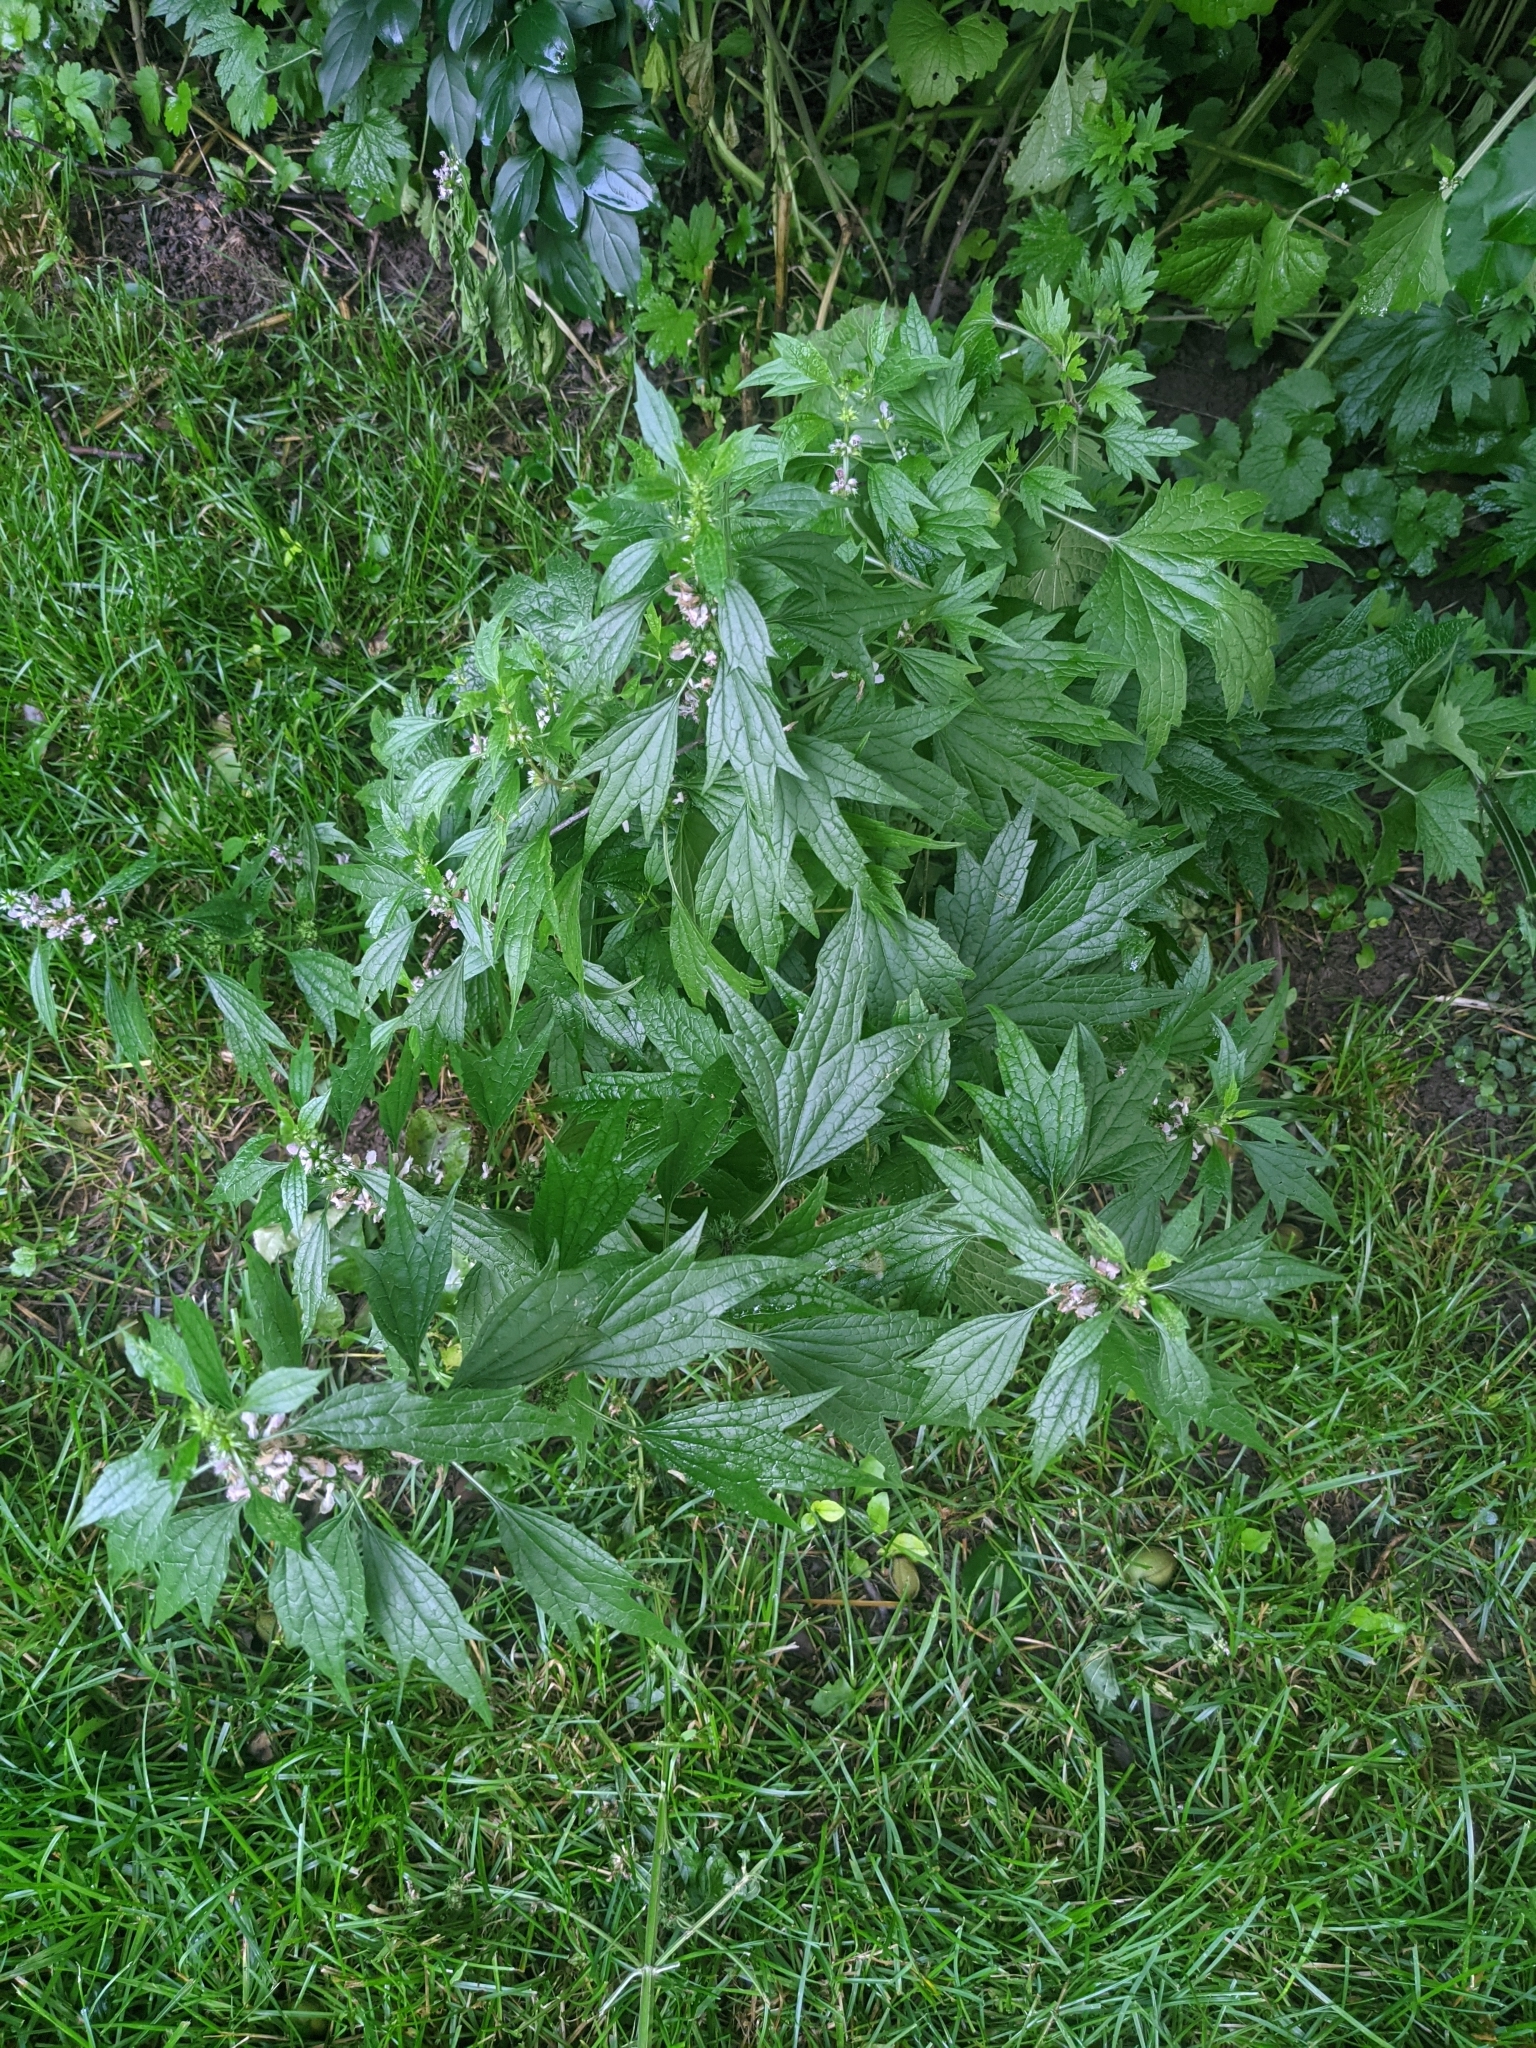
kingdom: Plantae
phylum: Tracheophyta
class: Magnoliopsida
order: Lamiales
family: Lamiaceae
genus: Leonurus
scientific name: Leonurus cardiaca
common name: Motherwort
